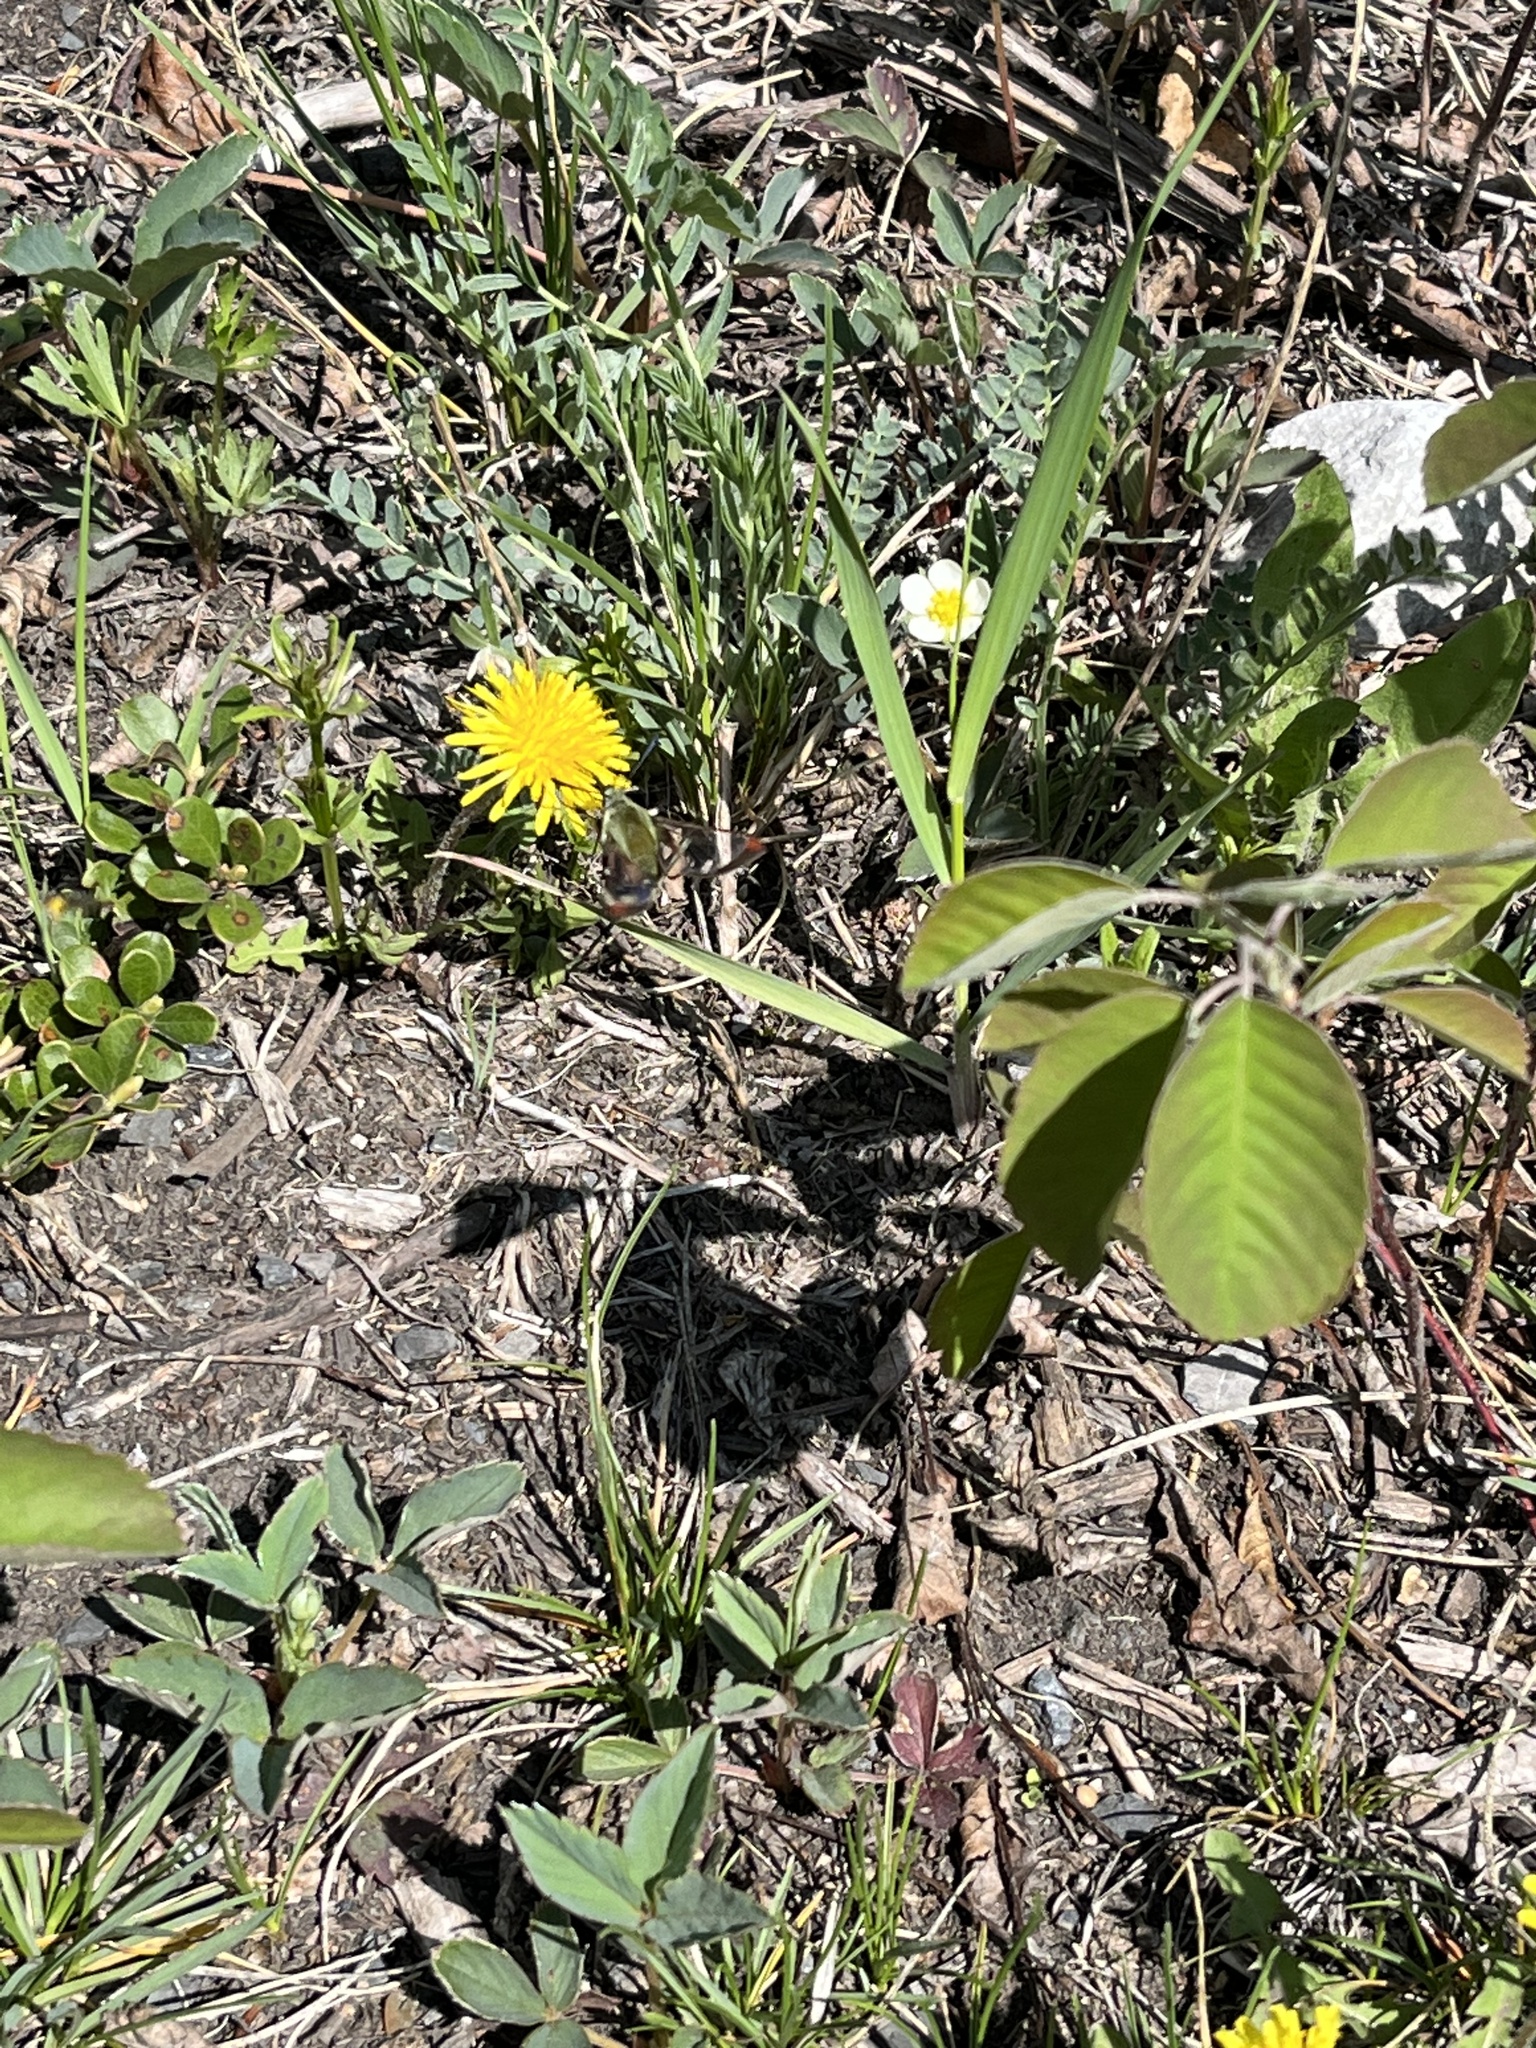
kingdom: Animalia
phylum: Arthropoda
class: Insecta
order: Lepidoptera
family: Sphingidae
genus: Hemaris
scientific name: Hemaris thetis
